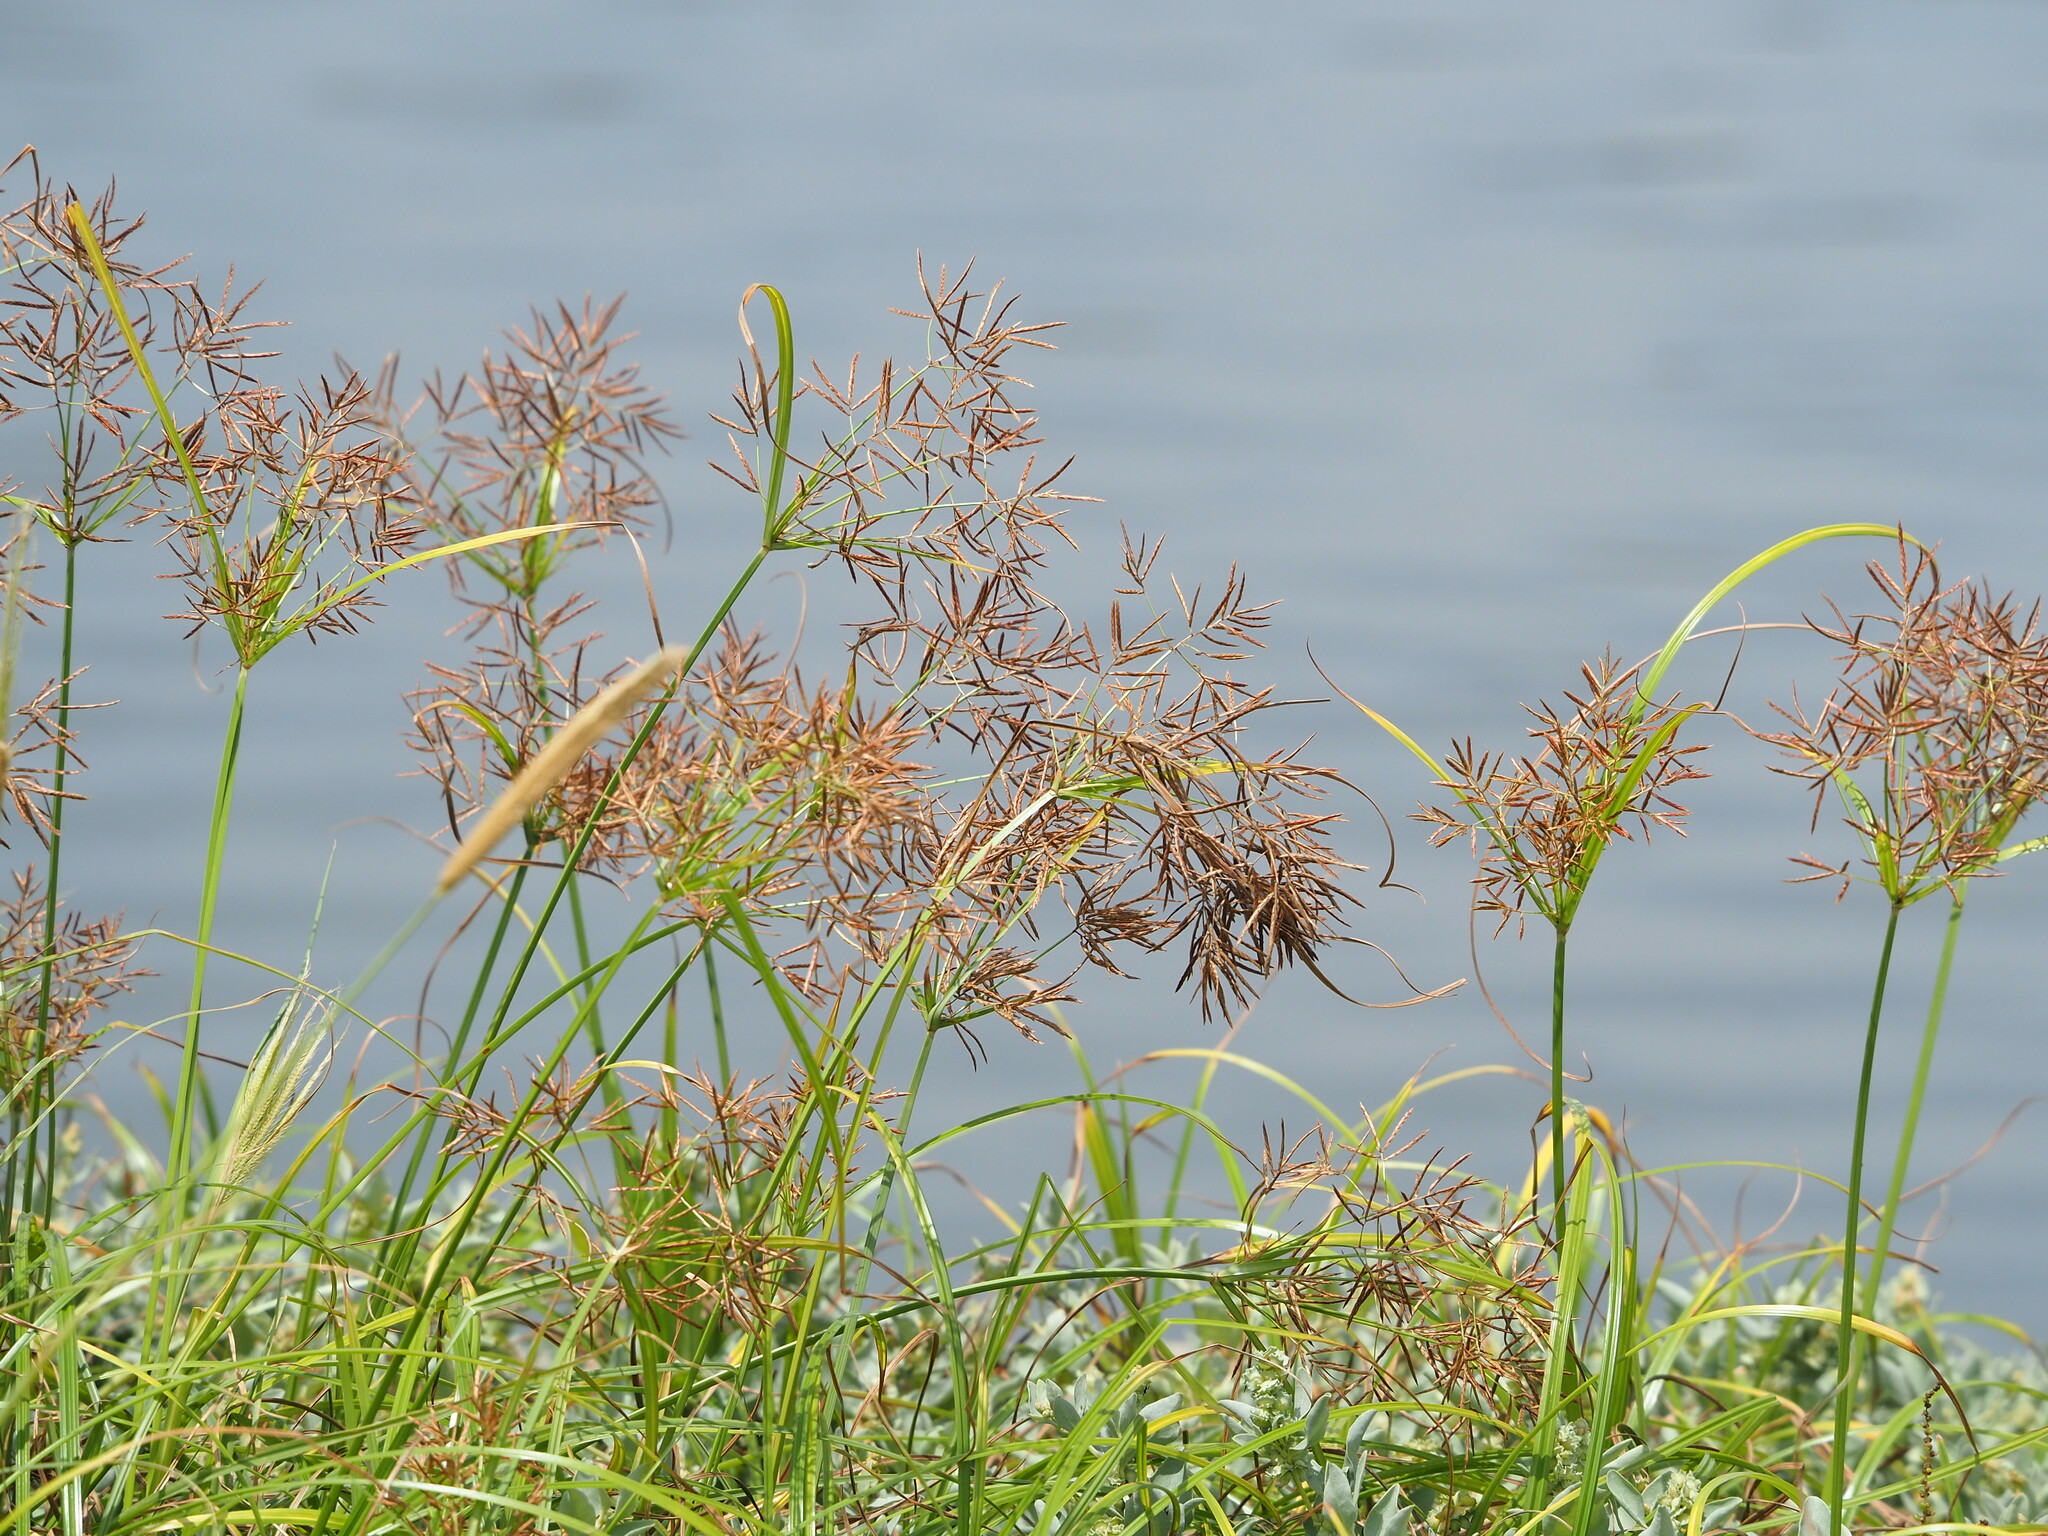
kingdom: Plantae
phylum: Tracheophyta
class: Liliopsida
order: Poales
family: Cyperaceae
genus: Cyperus
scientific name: Cyperus rotundus
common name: Nutgrass
